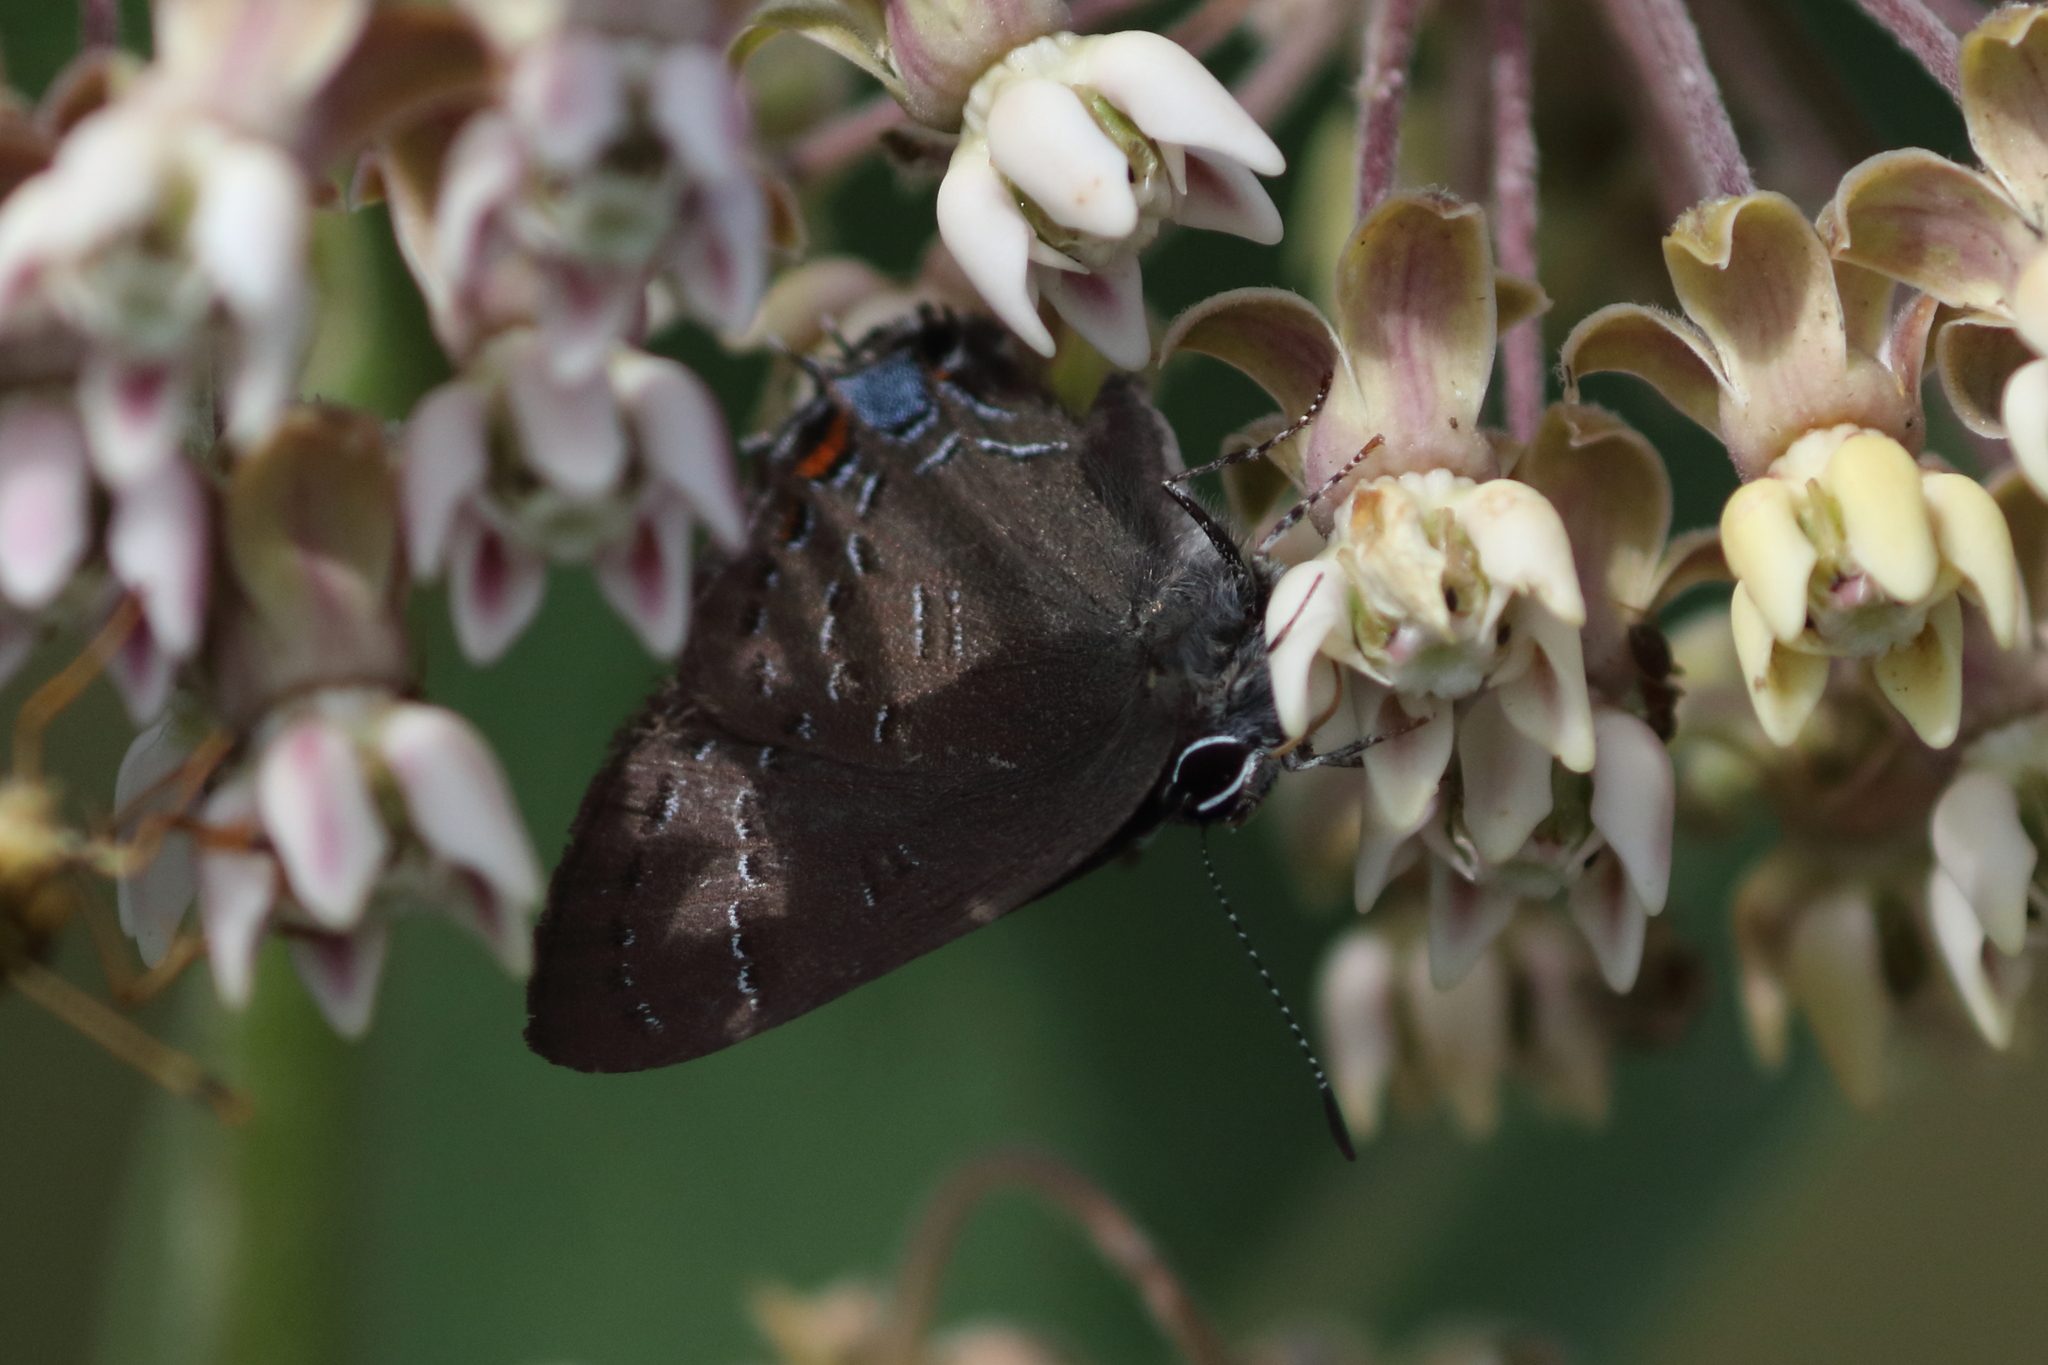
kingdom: Animalia
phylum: Arthropoda
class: Insecta
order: Lepidoptera
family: Lycaenidae
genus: Satyrium
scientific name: Satyrium calanus
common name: Banded hairstreak
